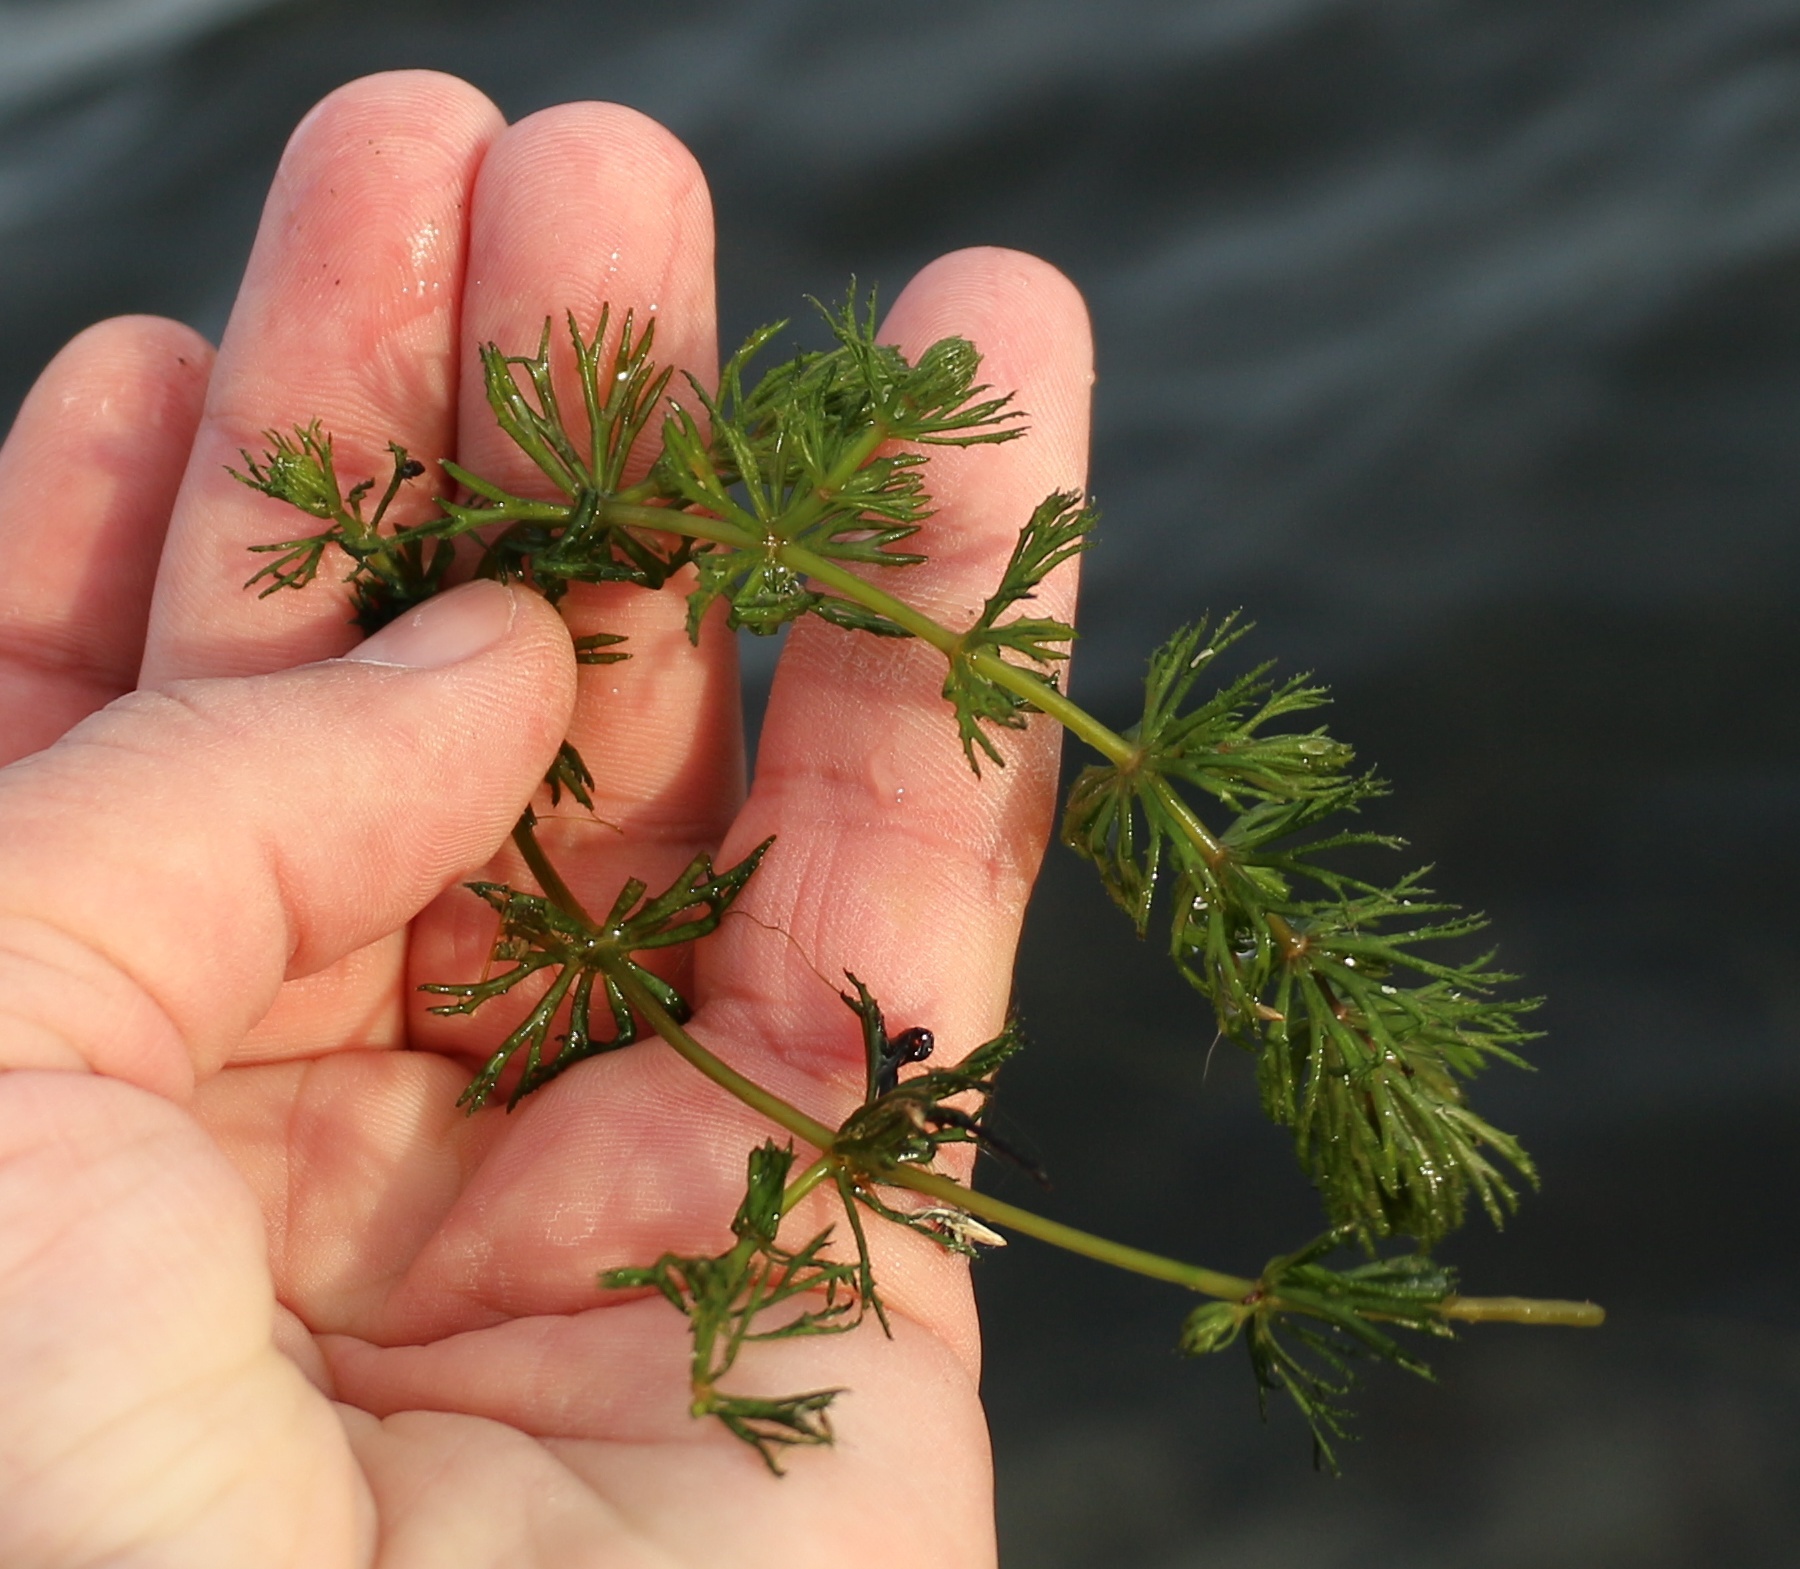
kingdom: Plantae
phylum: Tracheophyta
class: Magnoliopsida
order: Ceratophyllales
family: Ceratophyllaceae
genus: Ceratophyllum
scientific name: Ceratophyllum demersum
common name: Rigid hornwort
